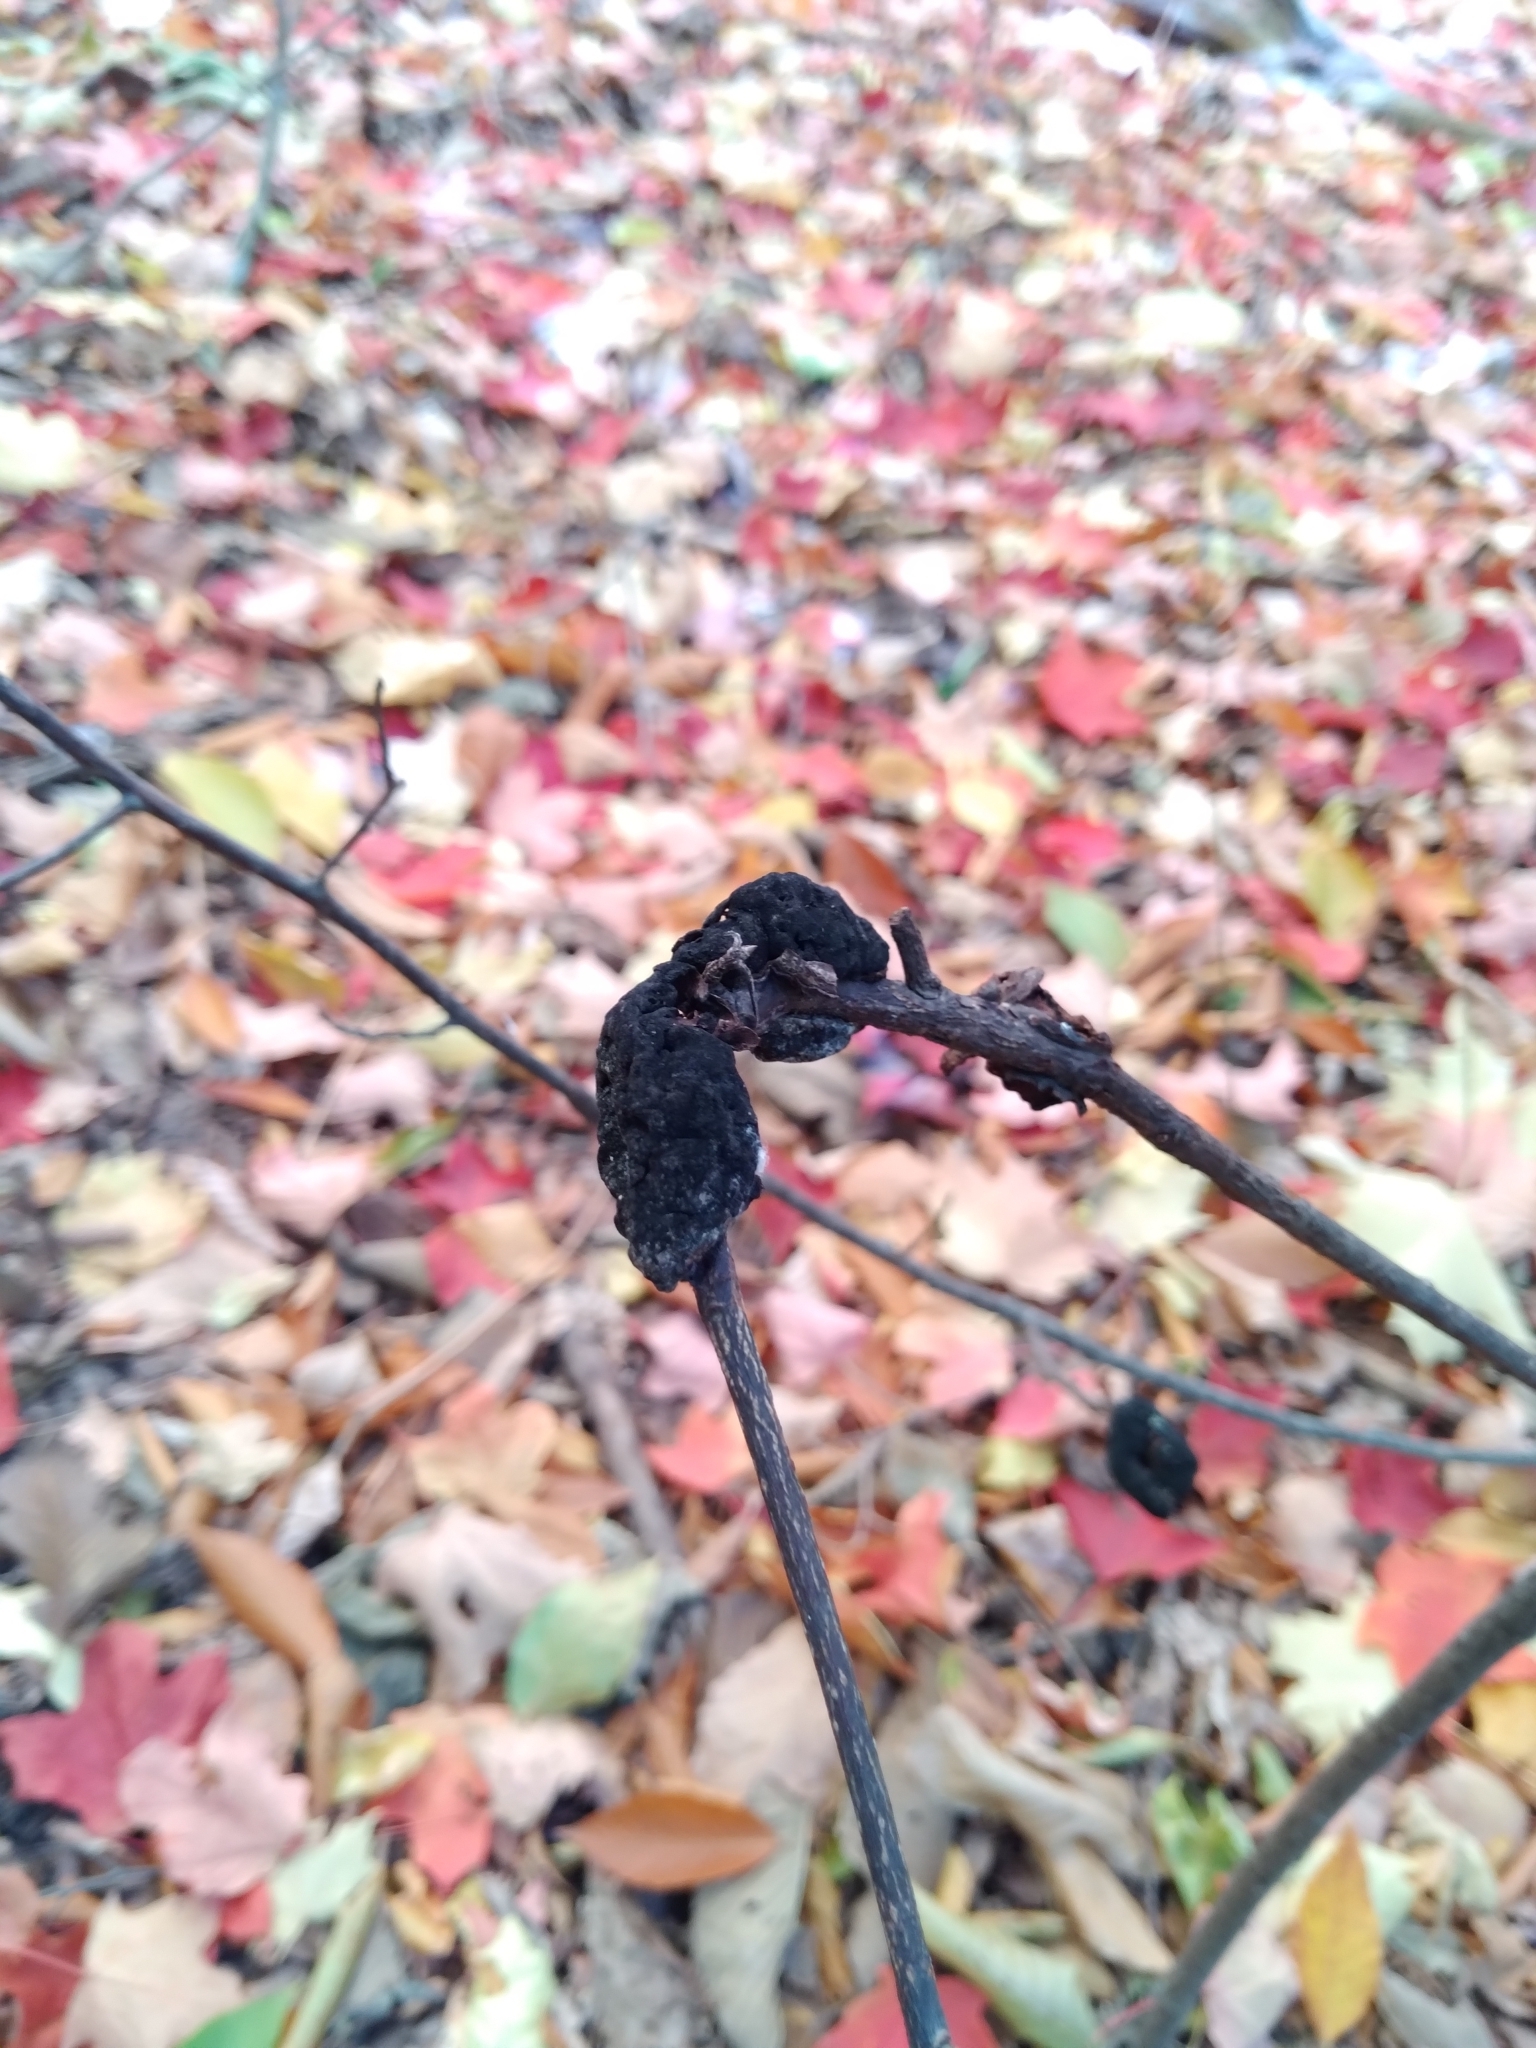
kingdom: Fungi
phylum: Ascomycota
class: Dothideomycetes
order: Venturiales
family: Venturiaceae
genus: Apiosporina
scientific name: Apiosporina morbosa
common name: Black knot
